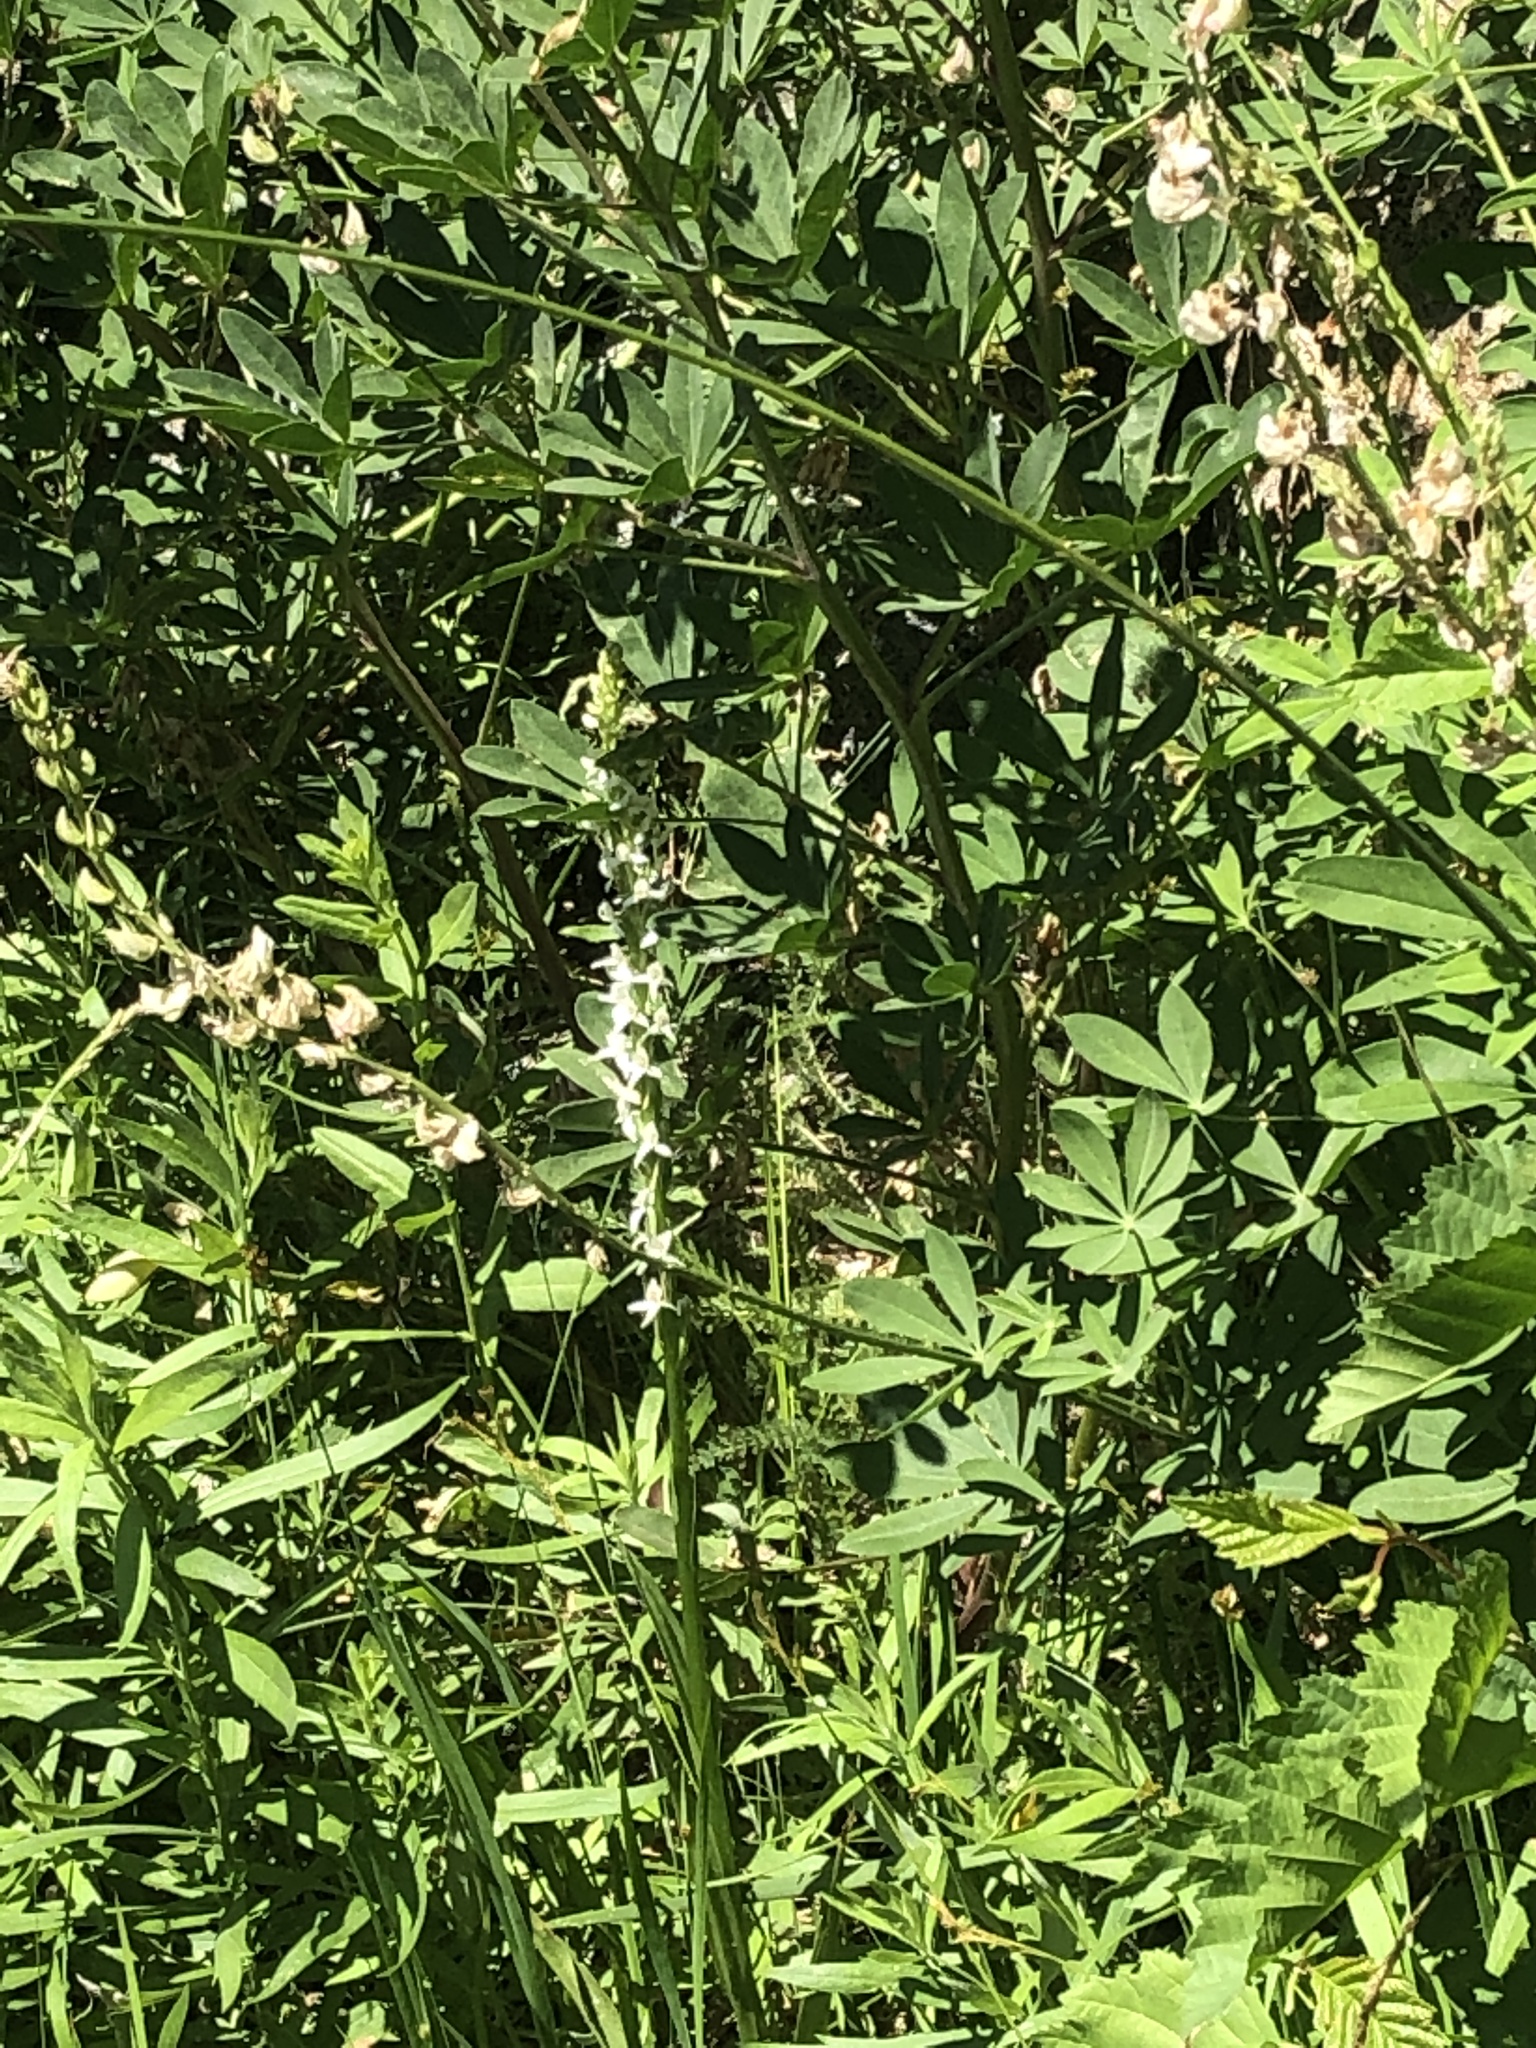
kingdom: Plantae
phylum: Tracheophyta
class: Liliopsida
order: Asparagales
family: Orchidaceae
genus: Platanthera
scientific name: Platanthera dilatata
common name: Bog candles
